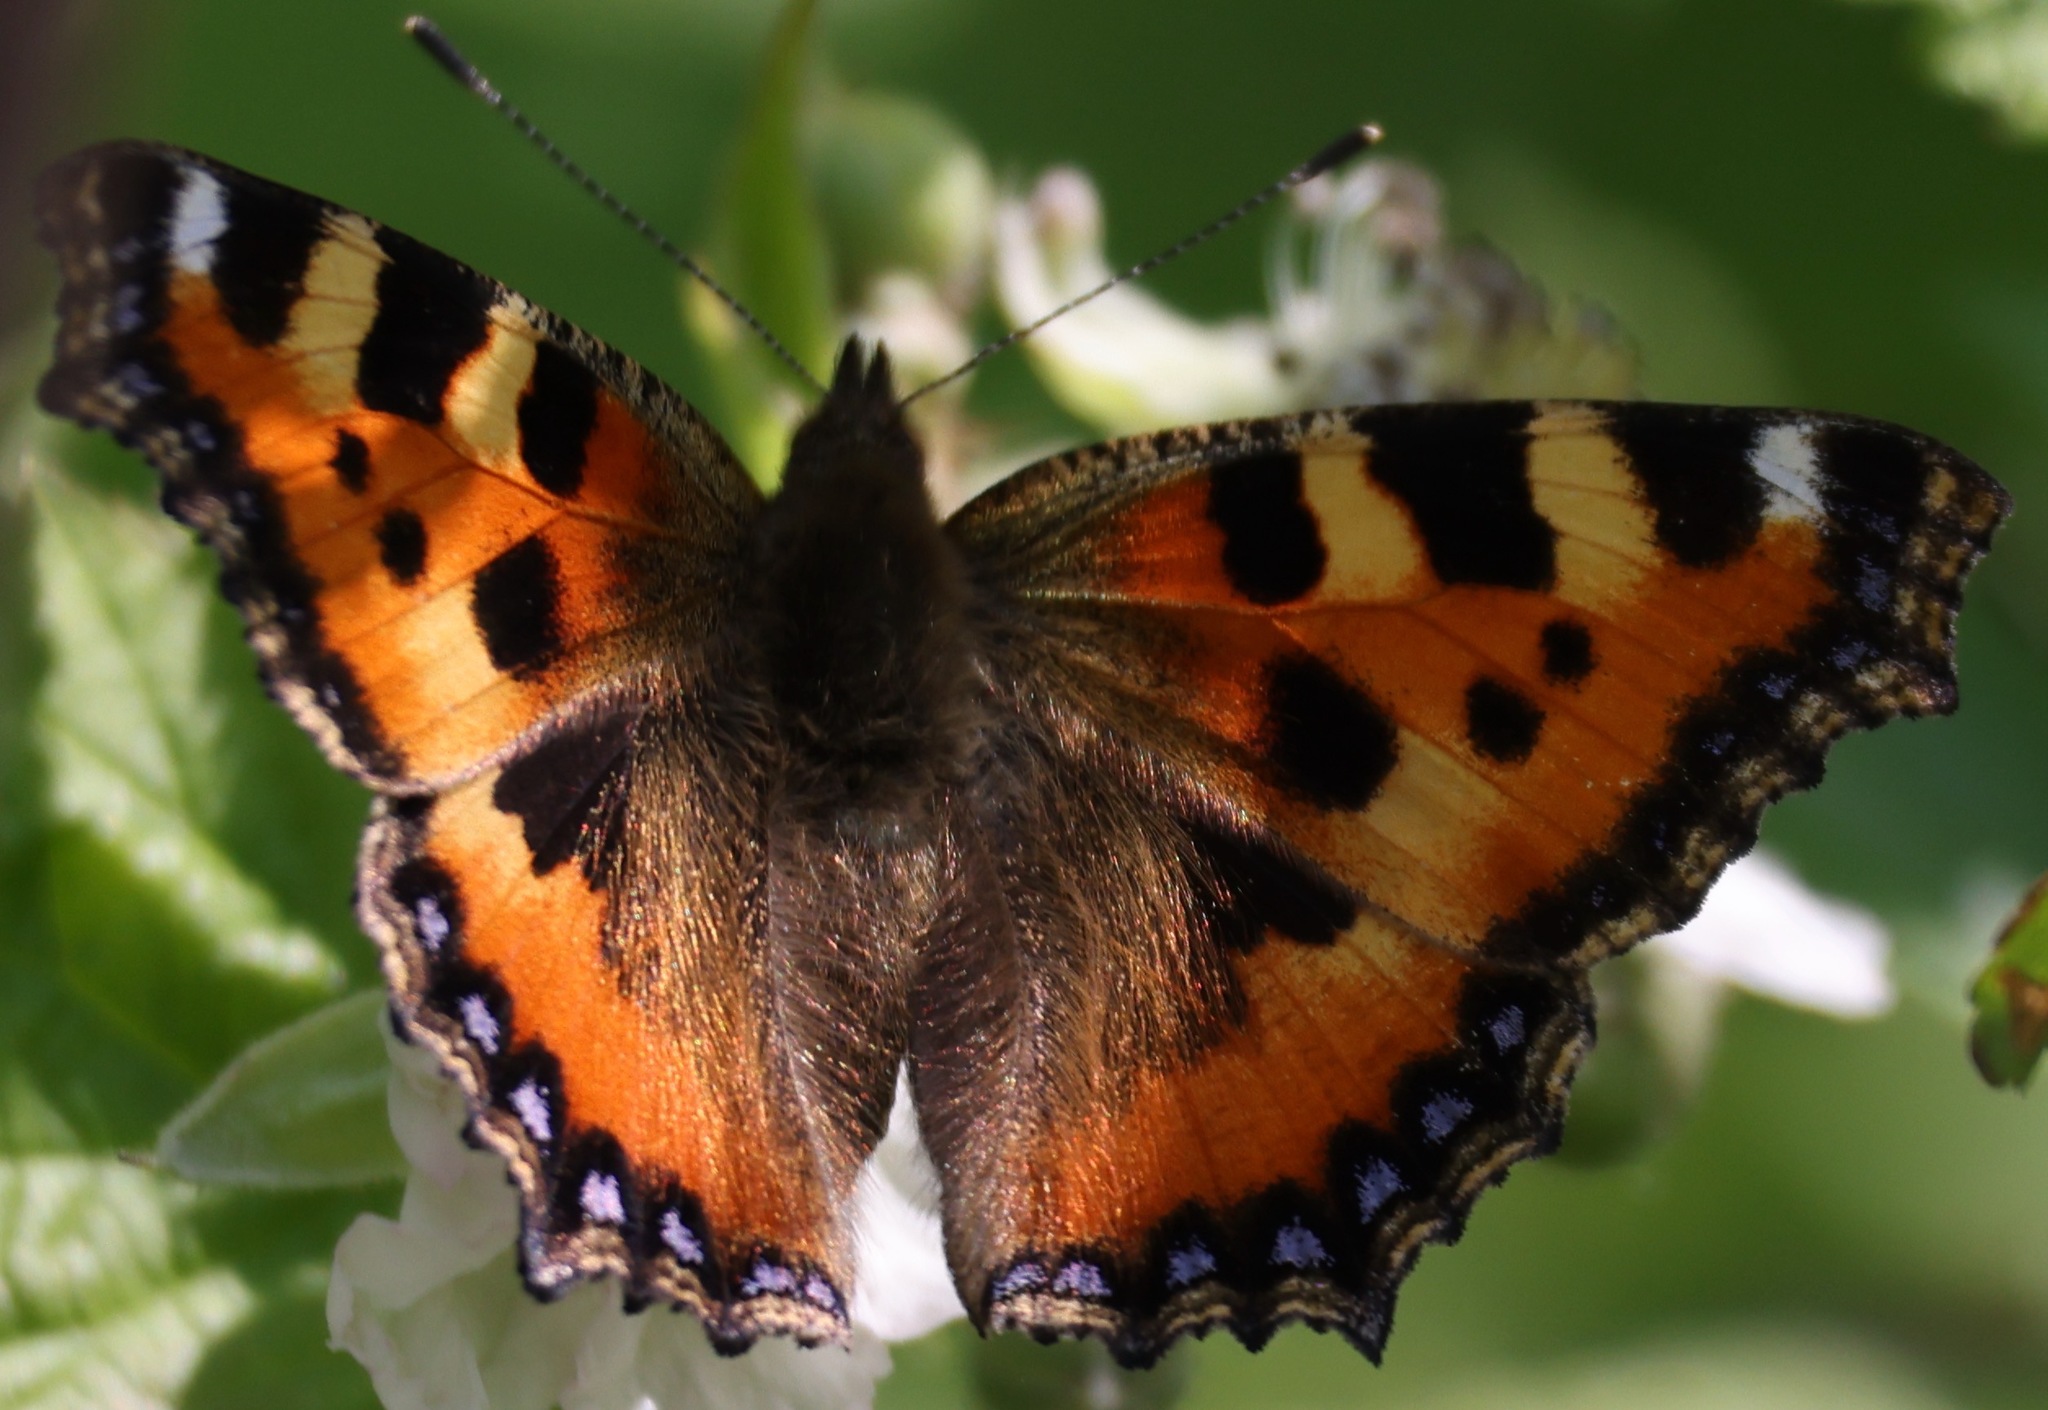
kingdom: Animalia
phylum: Arthropoda
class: Insecta
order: Lepidoptera
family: Nymphalidae
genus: Aglais
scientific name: Aglais urticae
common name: Small tortoiseshell
